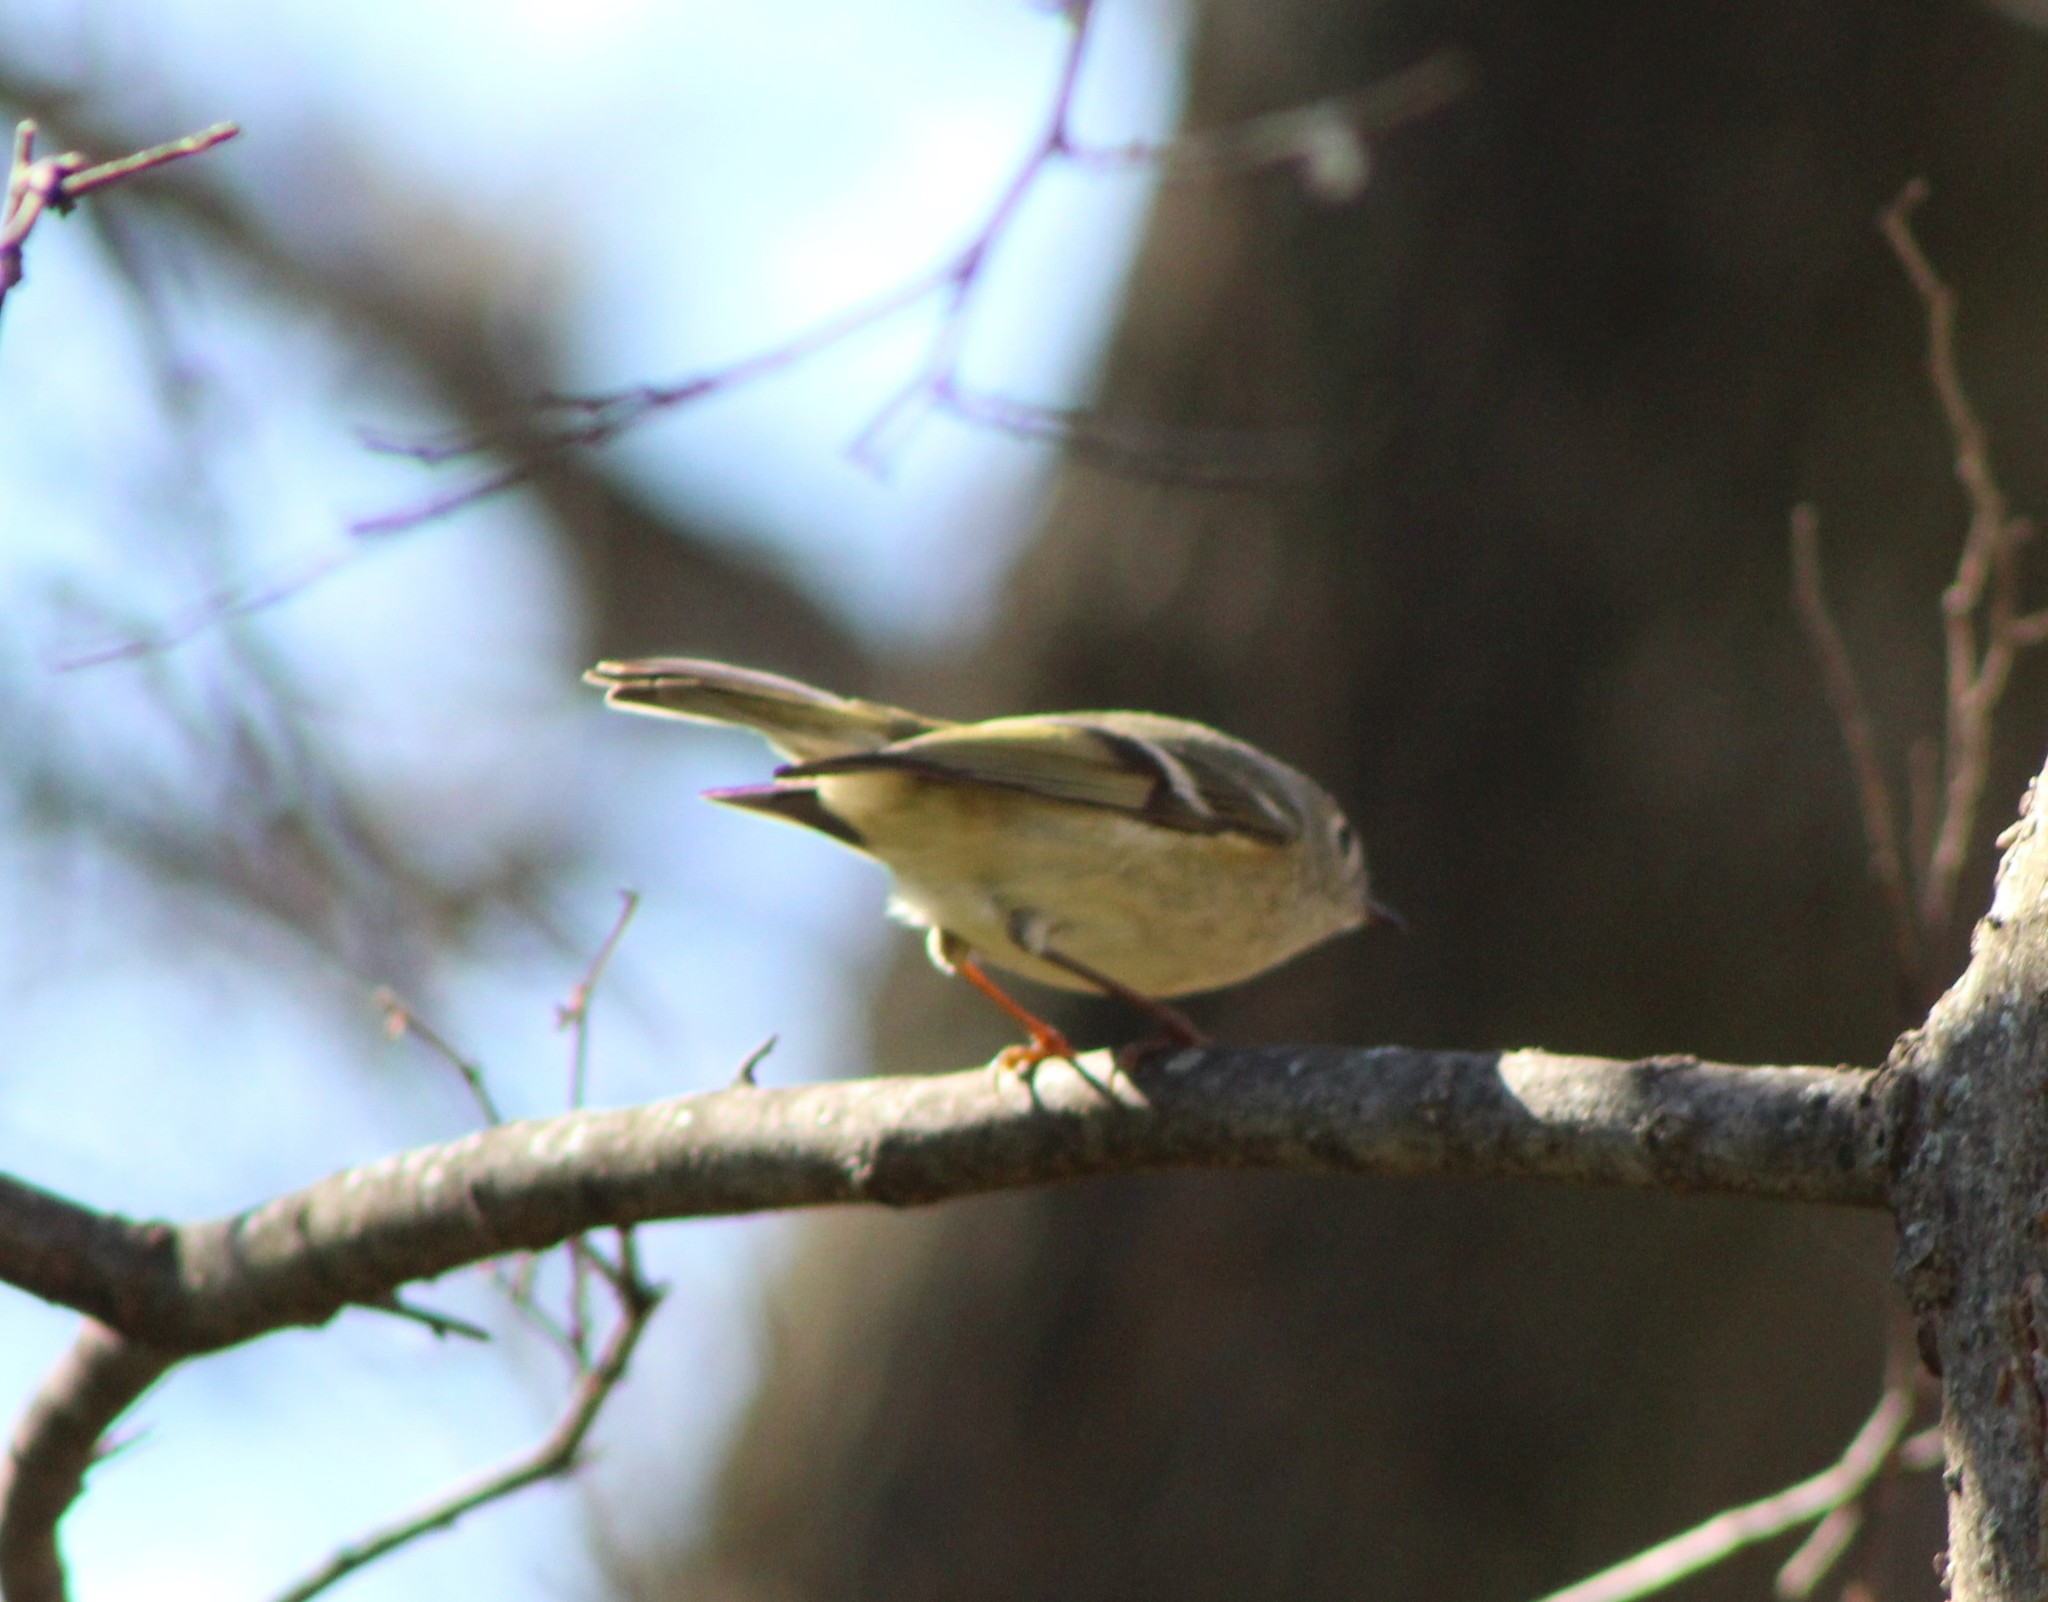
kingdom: Animalia
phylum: Chordata
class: Aves
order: Passeriformes
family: Regulidae
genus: Regulus
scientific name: Regulus calendula
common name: Ruby-crowned kinglet
